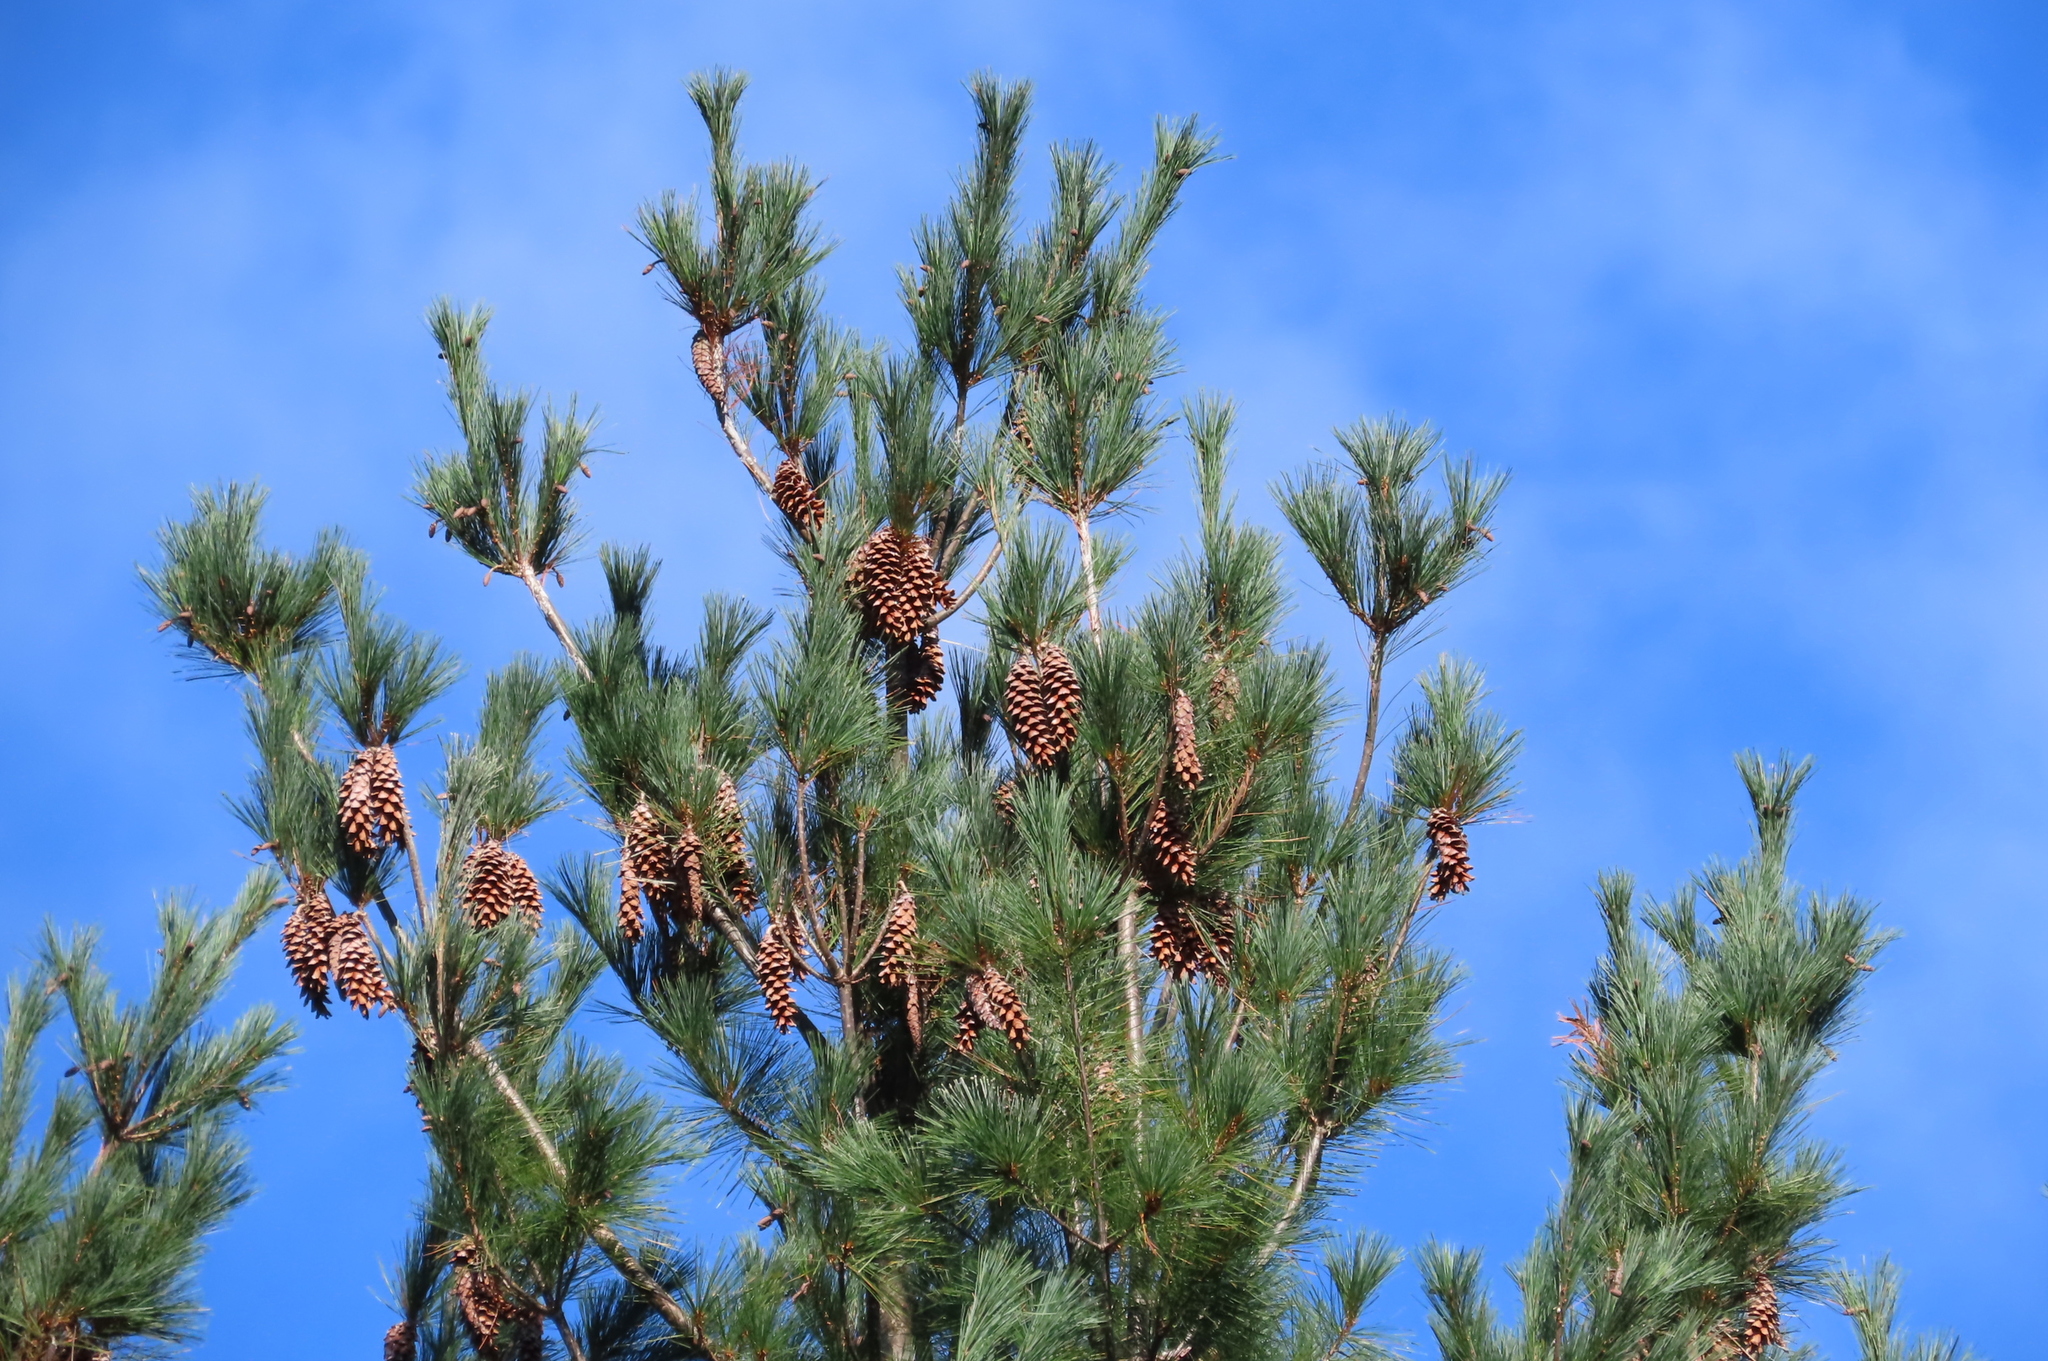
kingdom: Plantae
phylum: Tracheophyta
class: Pinopsida
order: Pinales
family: Pinaceae
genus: Pinus
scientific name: Pinus strobus
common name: Weymouth pine
